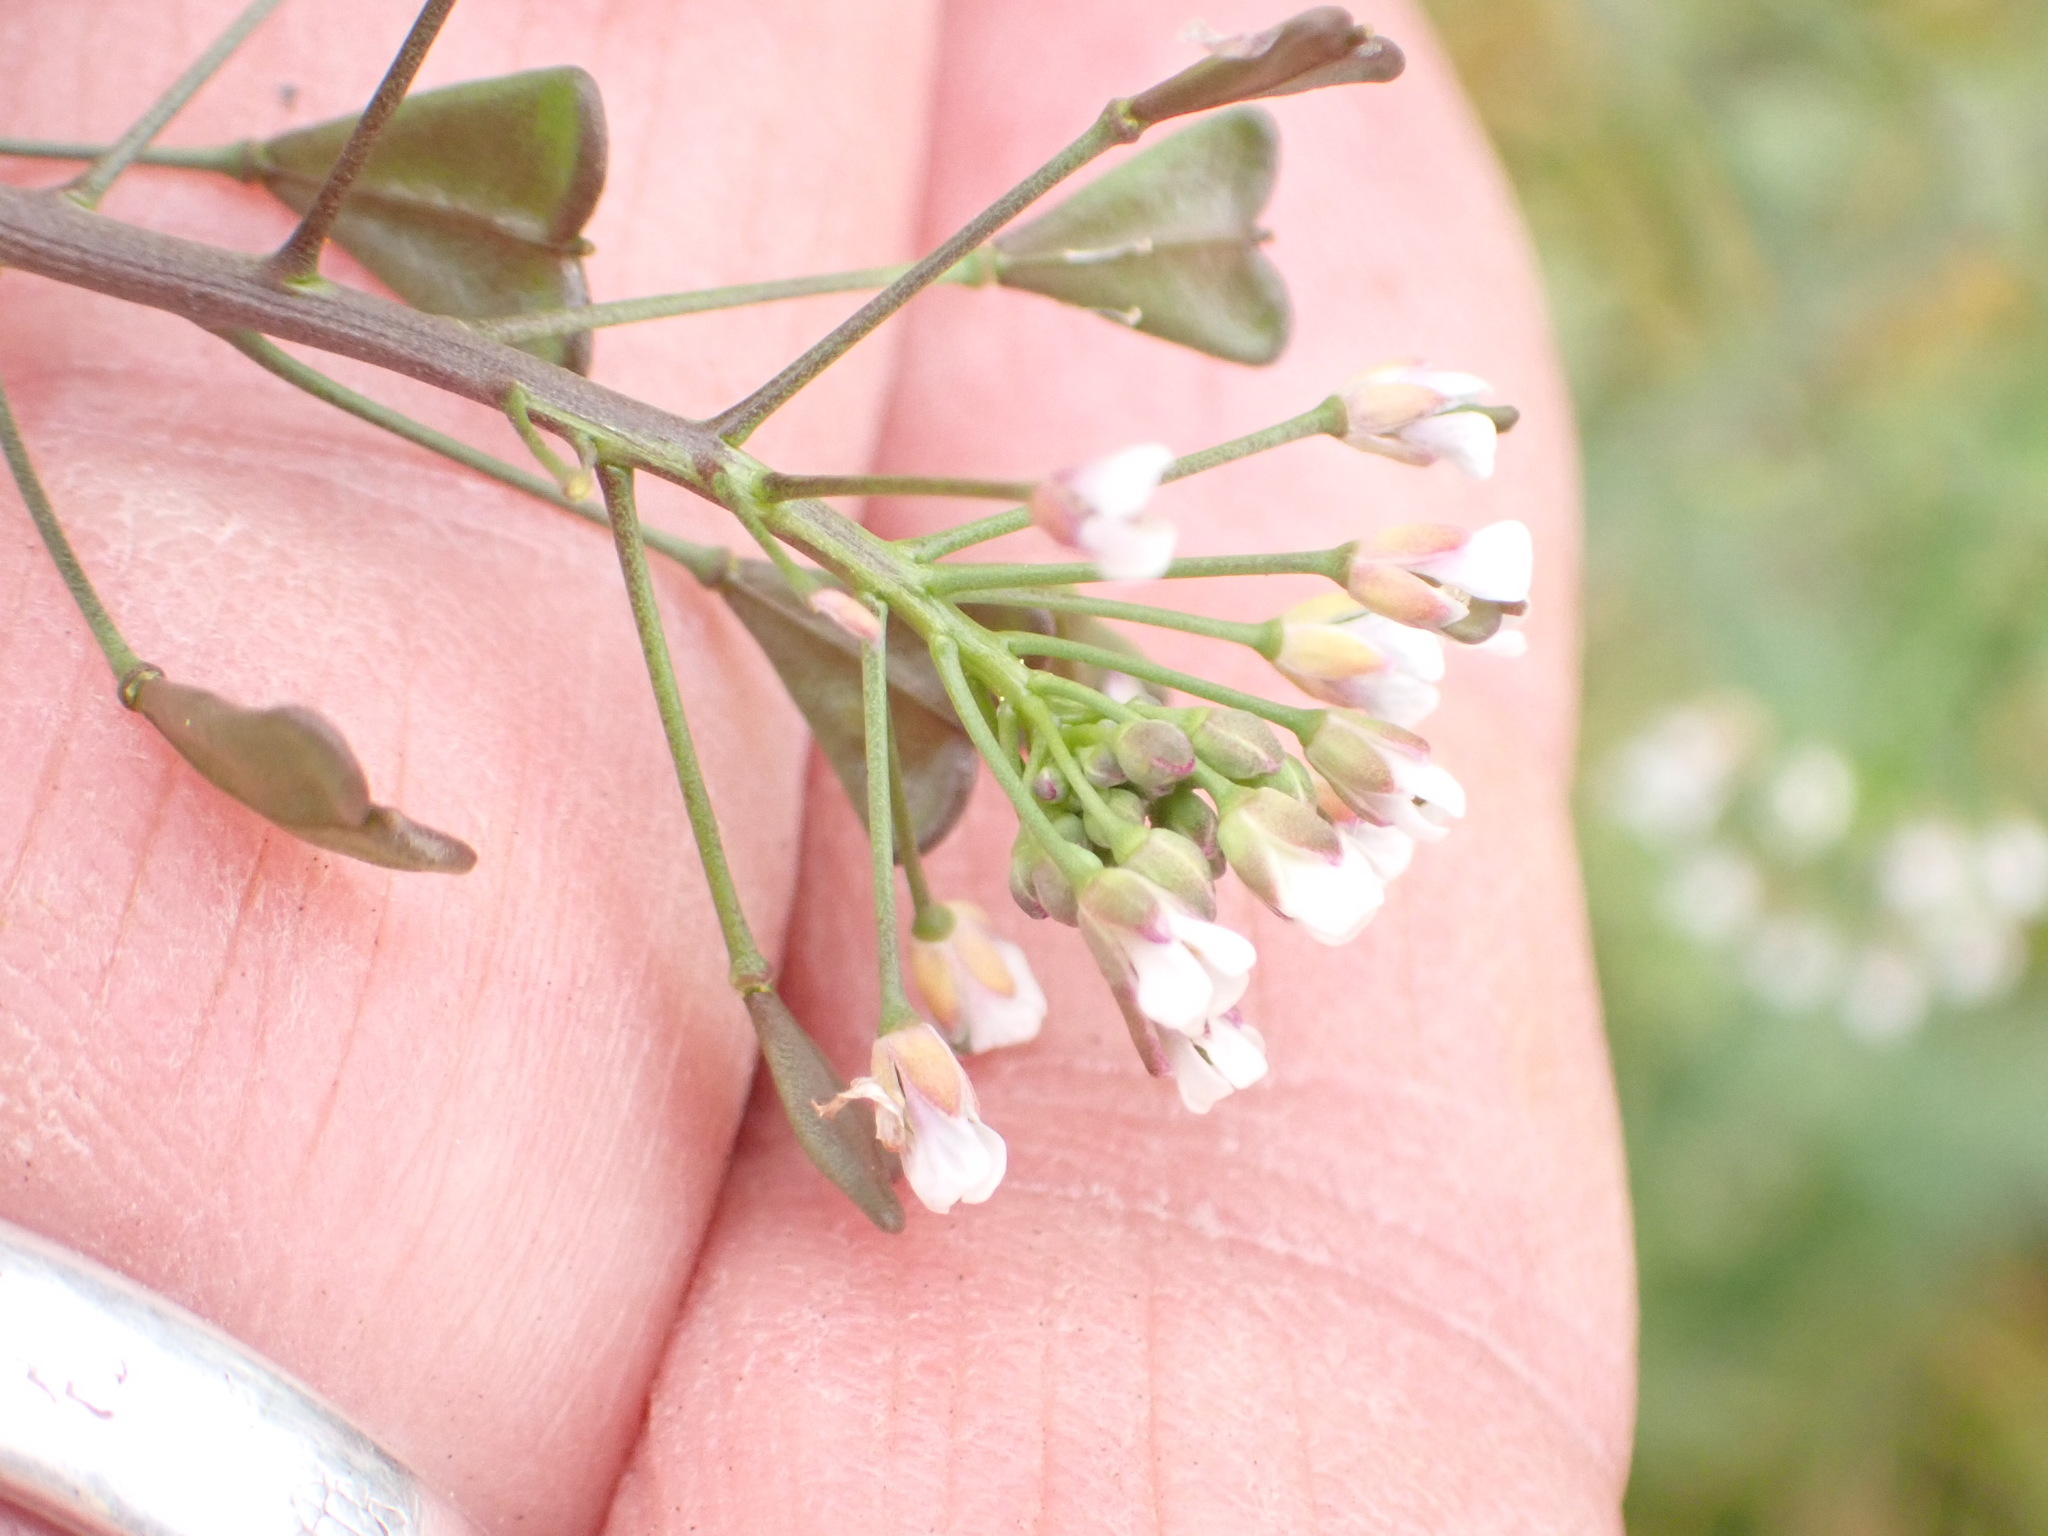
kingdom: Plantae
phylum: Tracheophyta
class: Magnoliopsida
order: Brassicales
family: Brassicaceae
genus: Capsella
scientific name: Capsella bursa-pastoris
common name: Shepherd's purse
